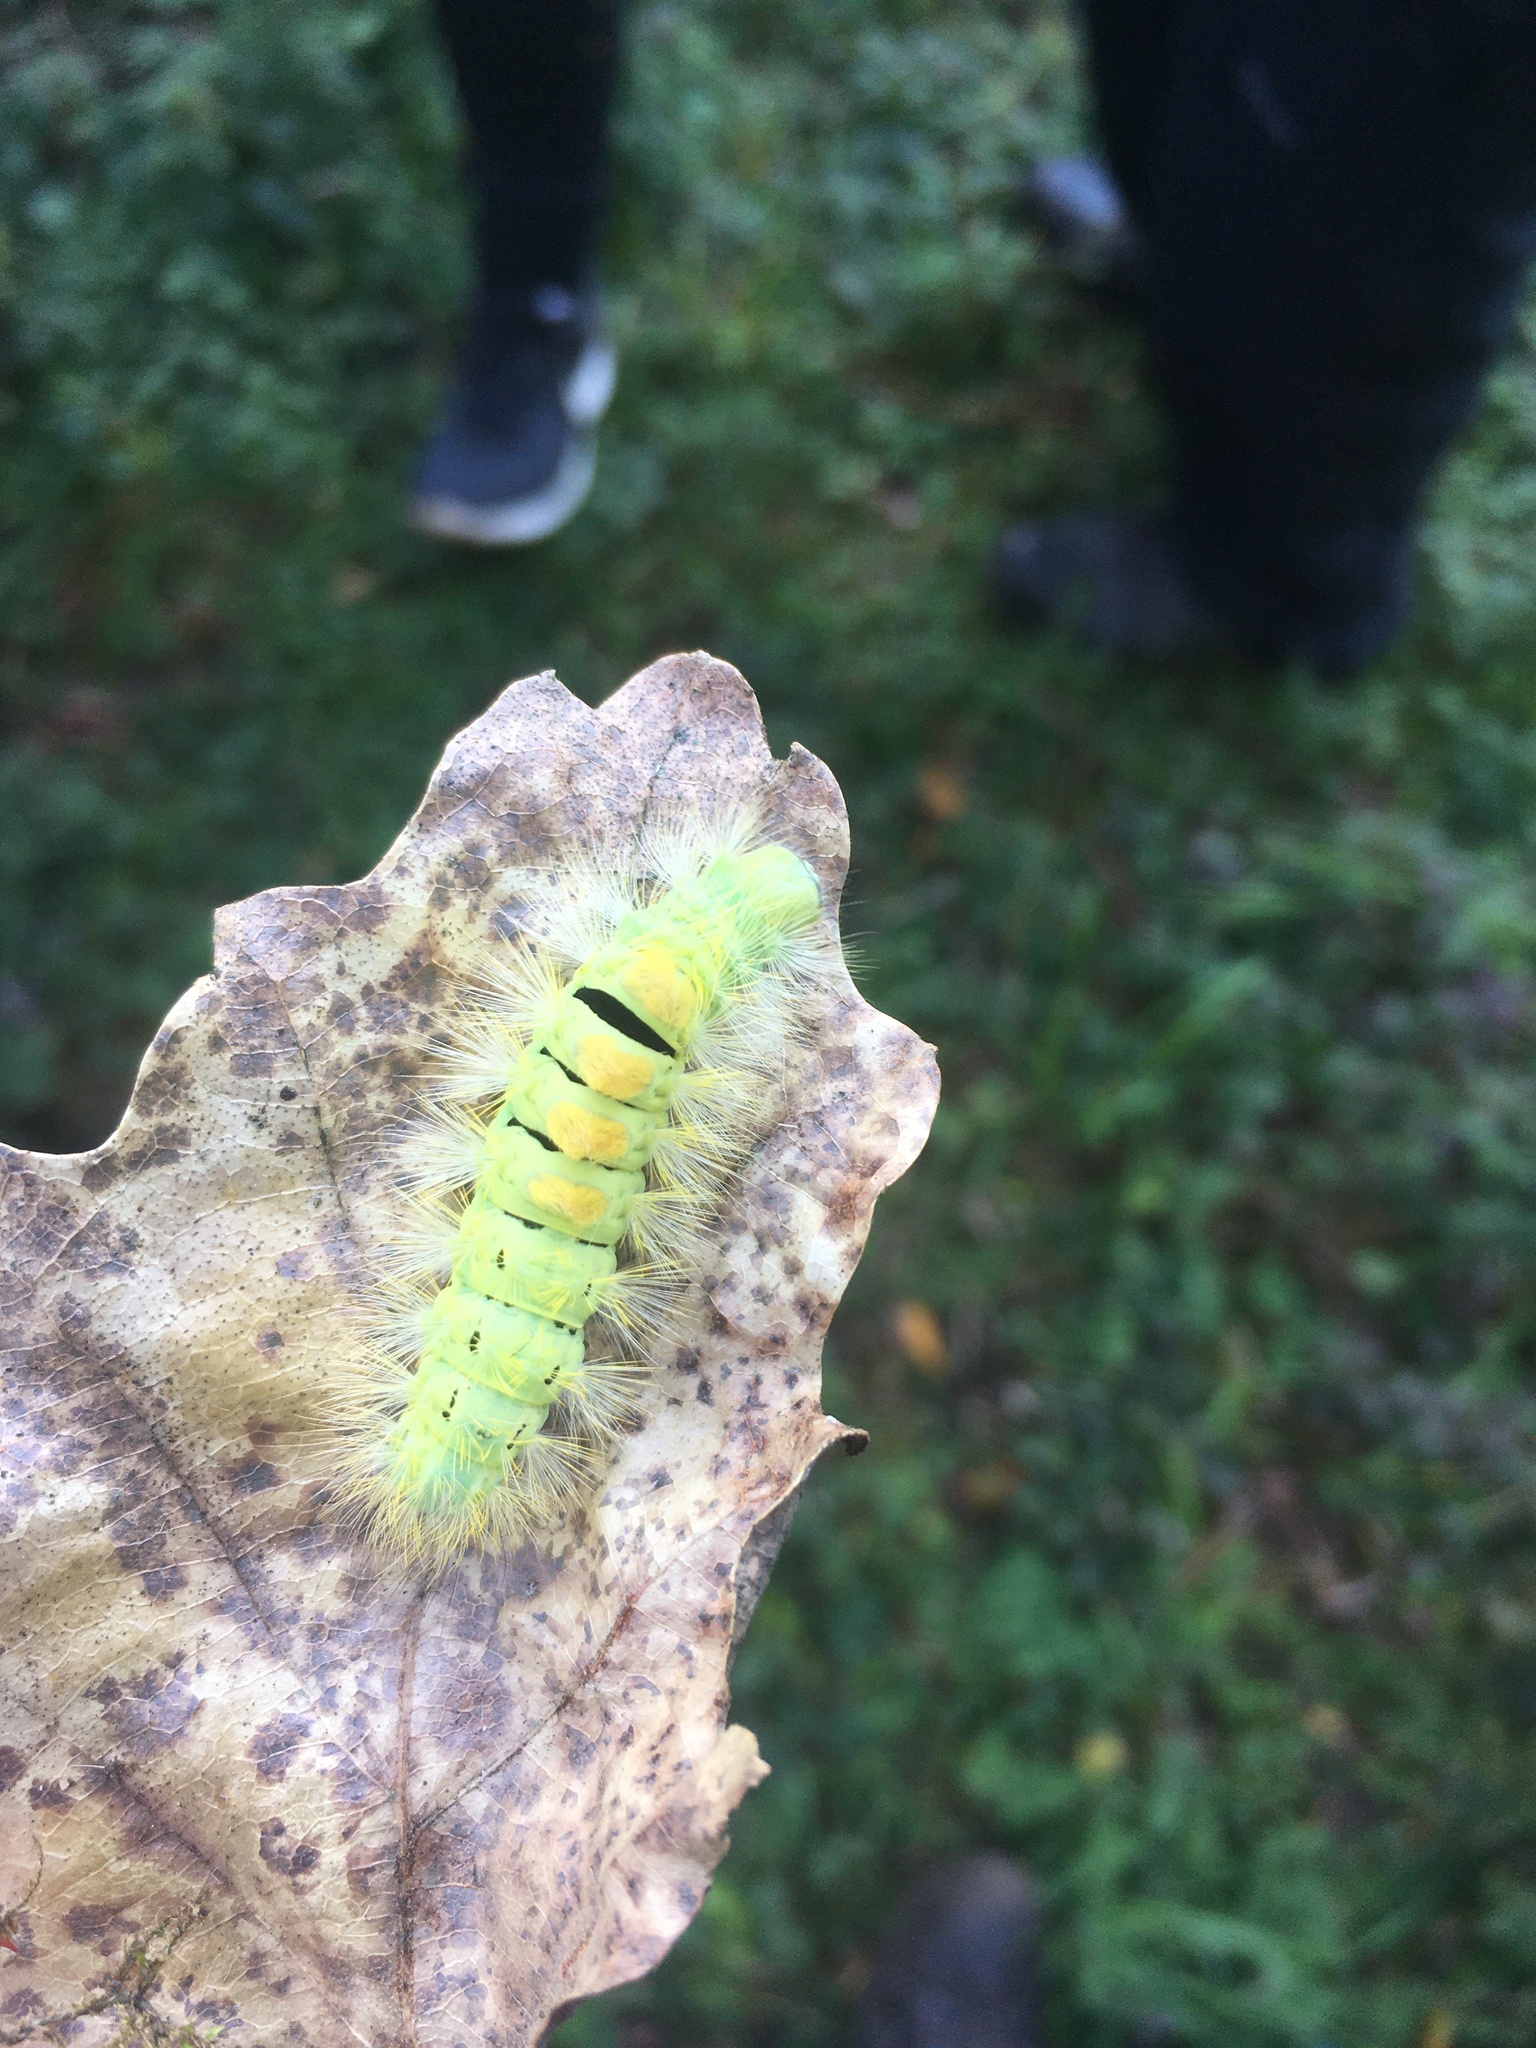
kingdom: Animalia
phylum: Arthropoda
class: Insecta
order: Lepidoptera
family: Erebidae
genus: Calliteara
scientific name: Calliteara pudibunda
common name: Pale tussock
